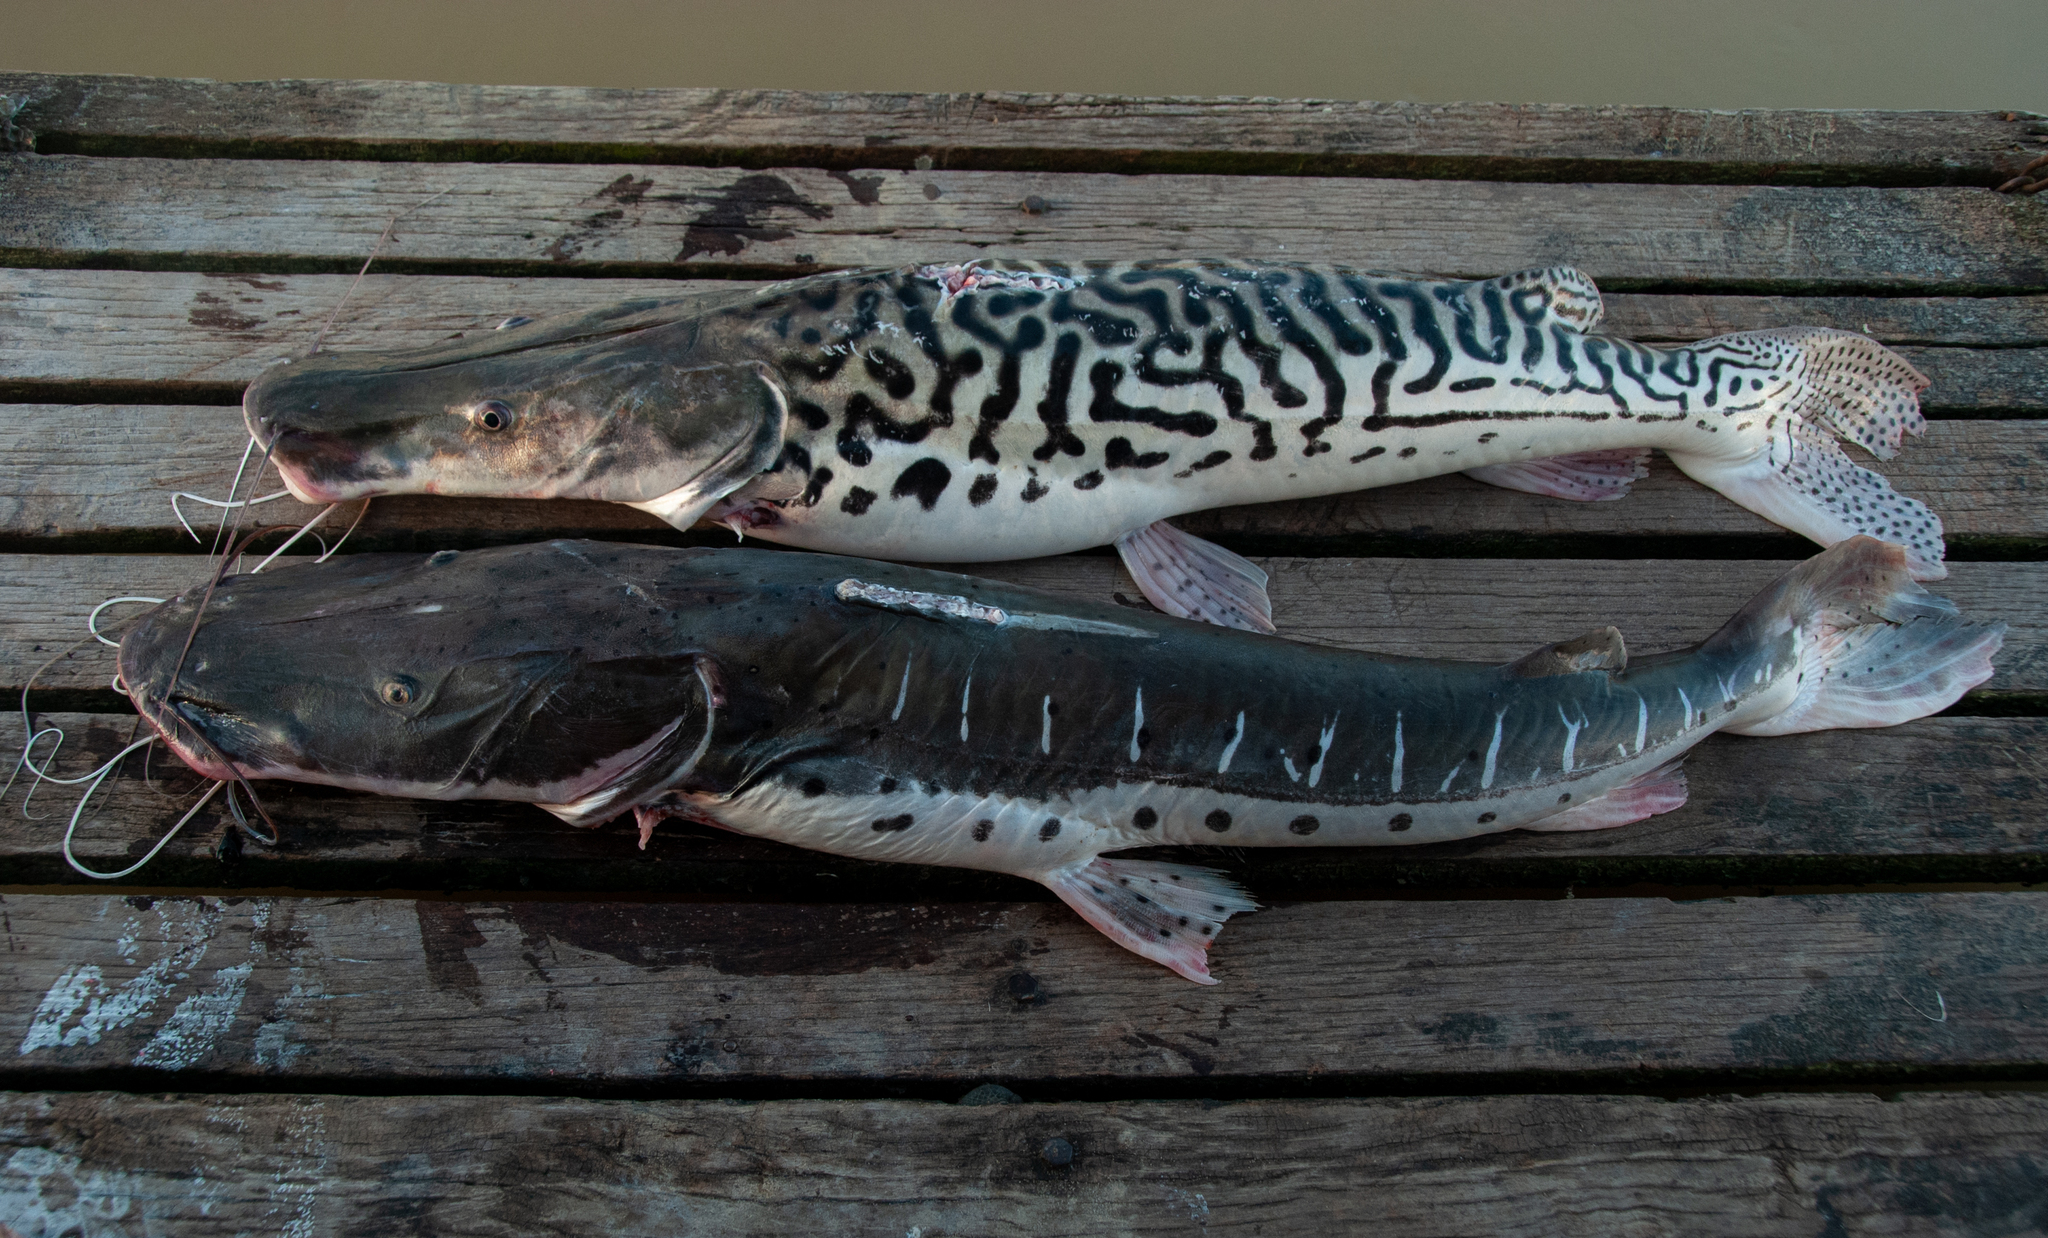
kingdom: Animalia
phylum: Chordata
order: Siluriformes
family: Pimelodidae
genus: Pseudoplatystoma
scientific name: Pseudoplatystoma tigrinum
